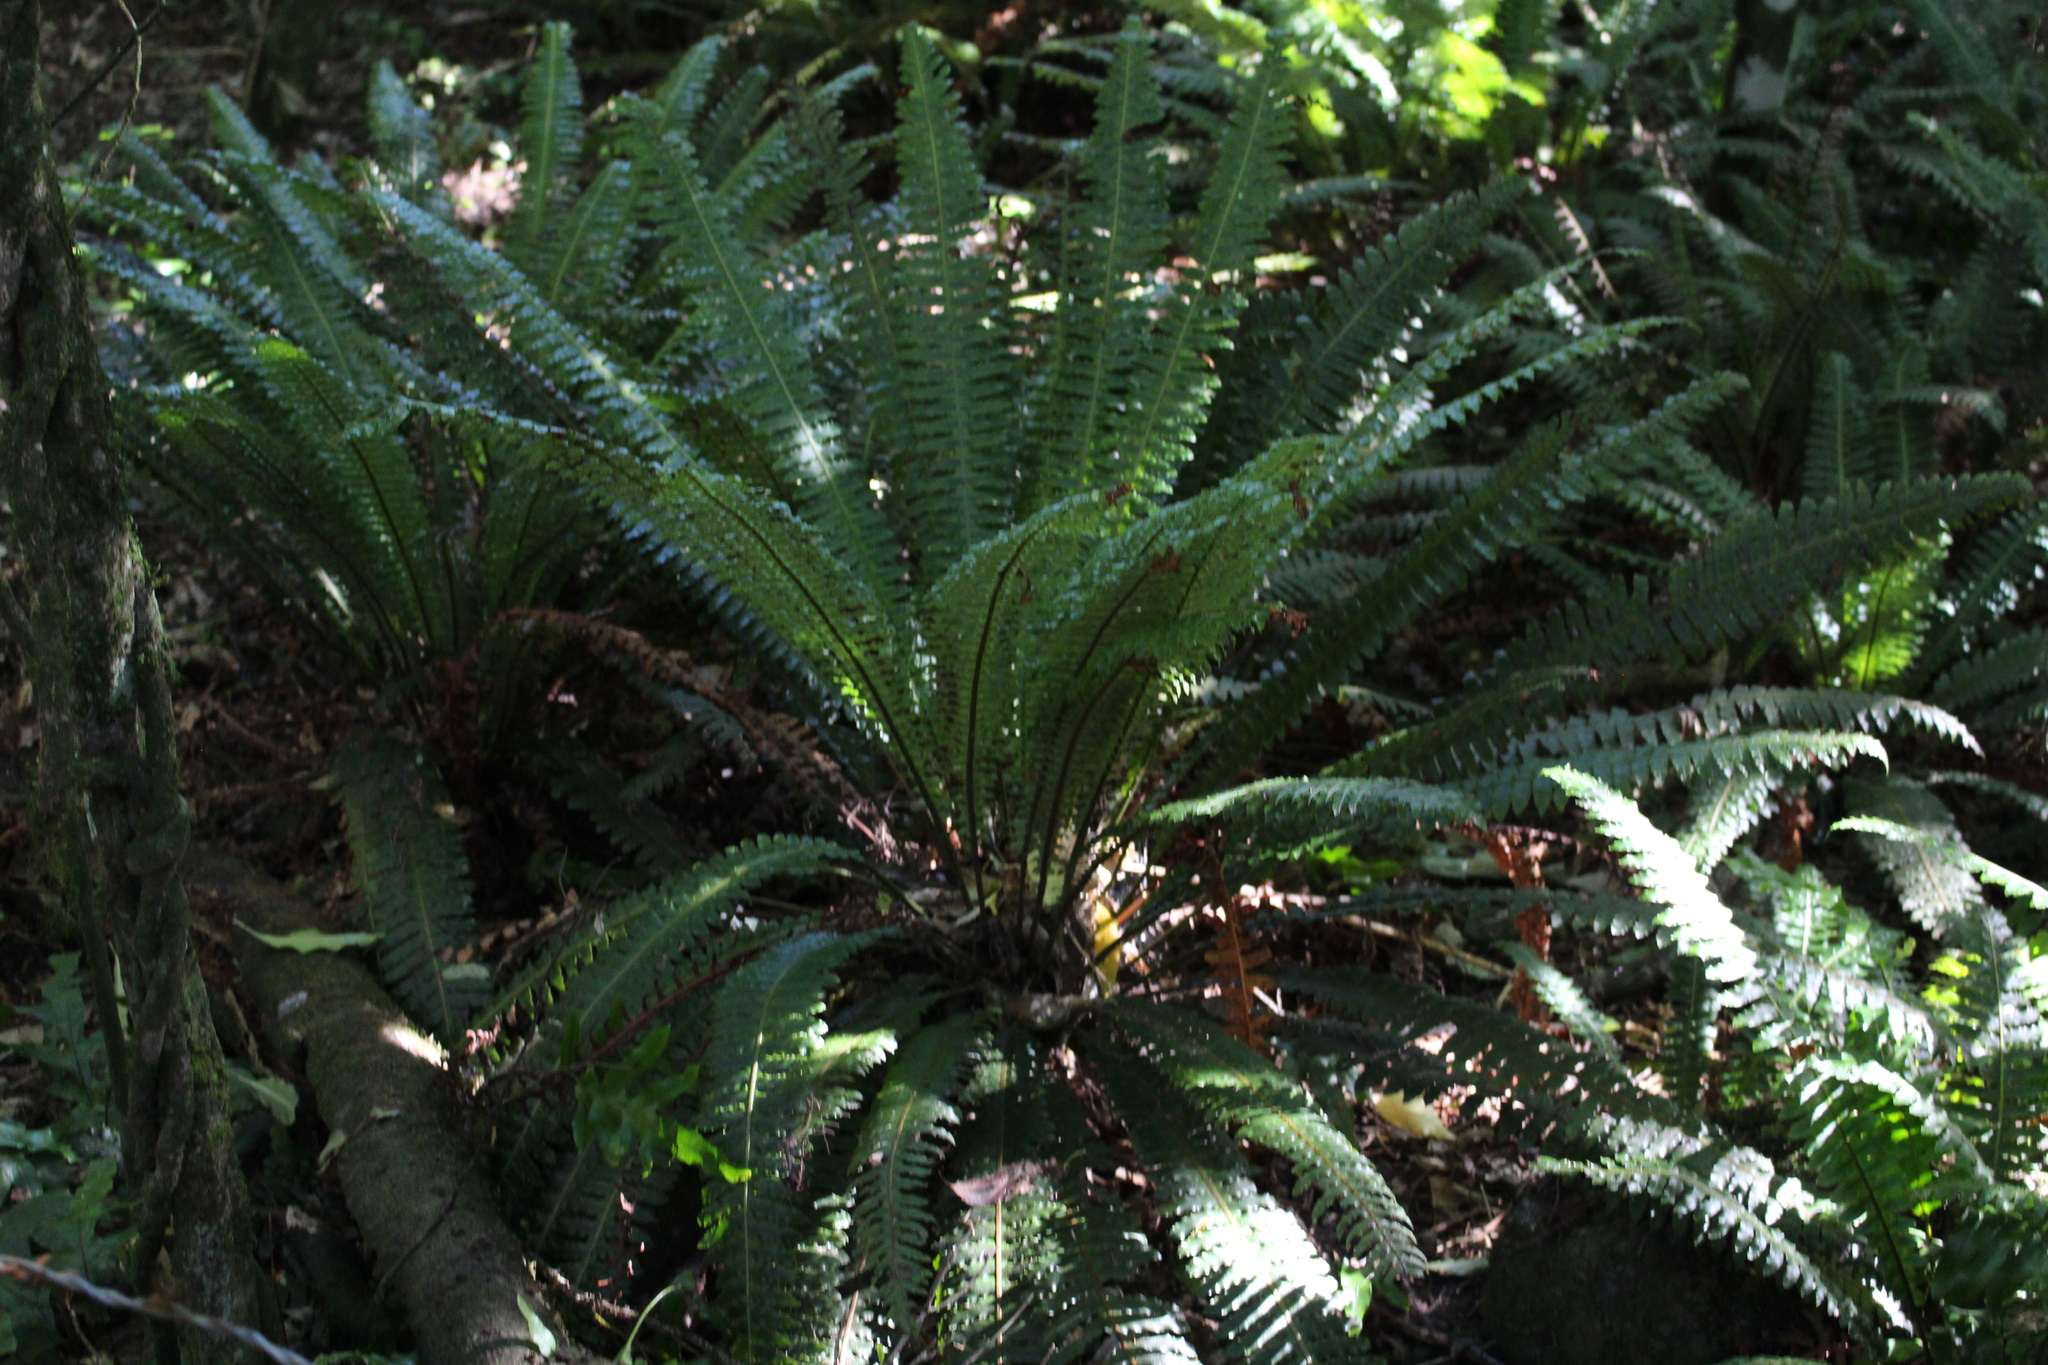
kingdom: Plantae
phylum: Tracheophyta
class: Polypodiopsida
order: Polypodiales
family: Blechnaceae
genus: Lomaria
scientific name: Lomaria discolor
